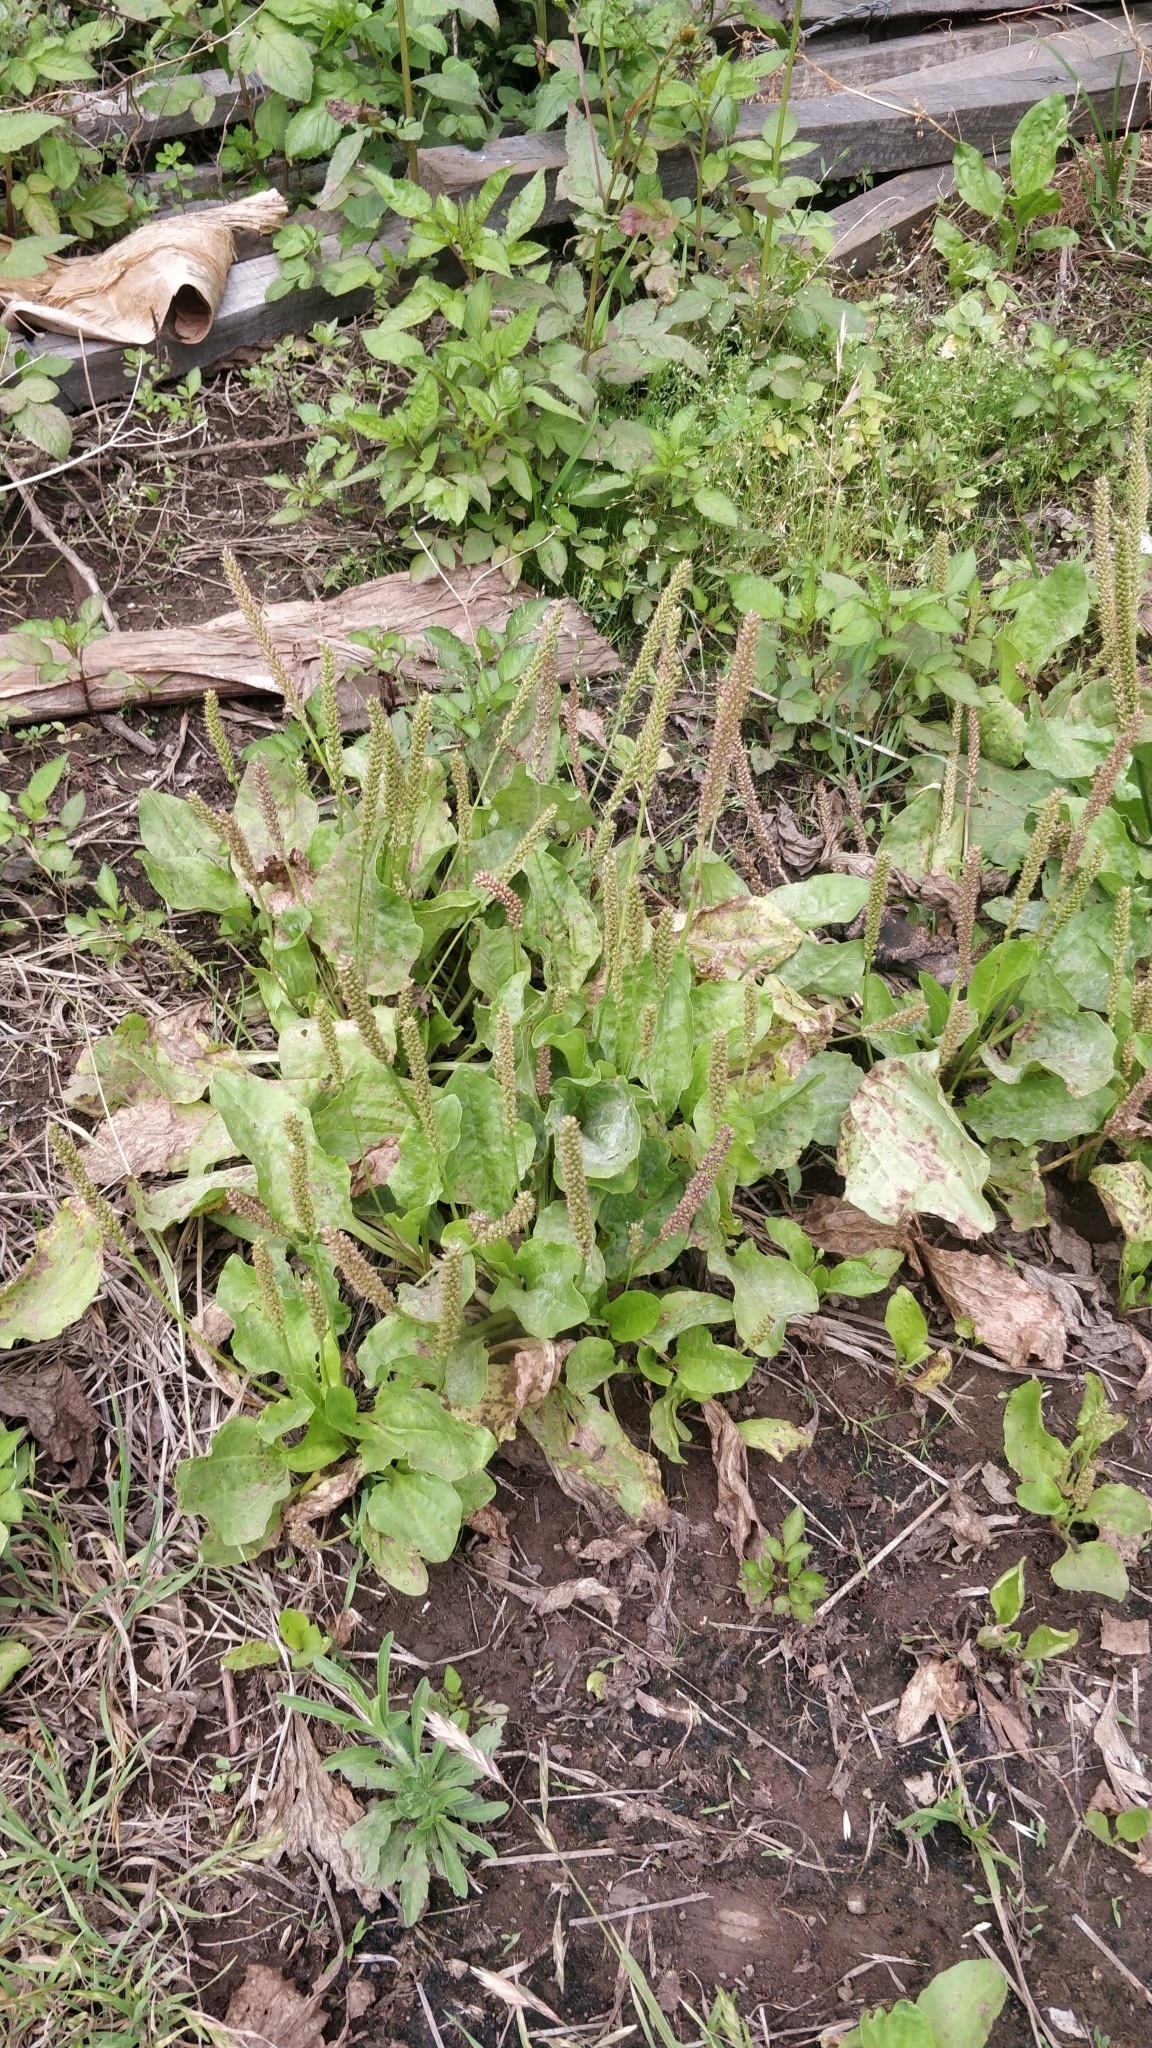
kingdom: Plantae
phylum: Tracheophyta
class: Magnoliopsida
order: Lamiales
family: Plantaginaceae
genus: Plantago
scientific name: Plantago major
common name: Common plantain
